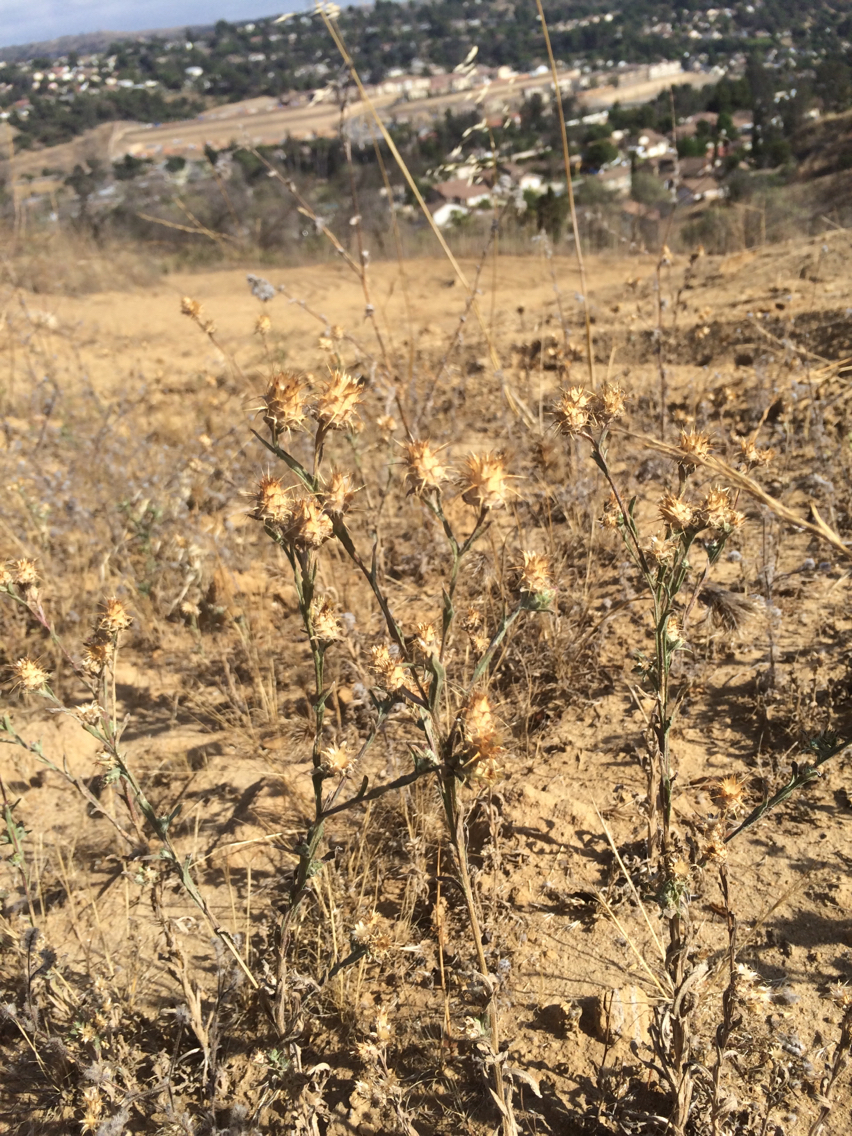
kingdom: Plantae
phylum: Tracheophyta
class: Magnoliopsida
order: Asterales
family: Asteraceae
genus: Centaurea
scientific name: Centaurea melitensis
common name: Maltese star-thistle
